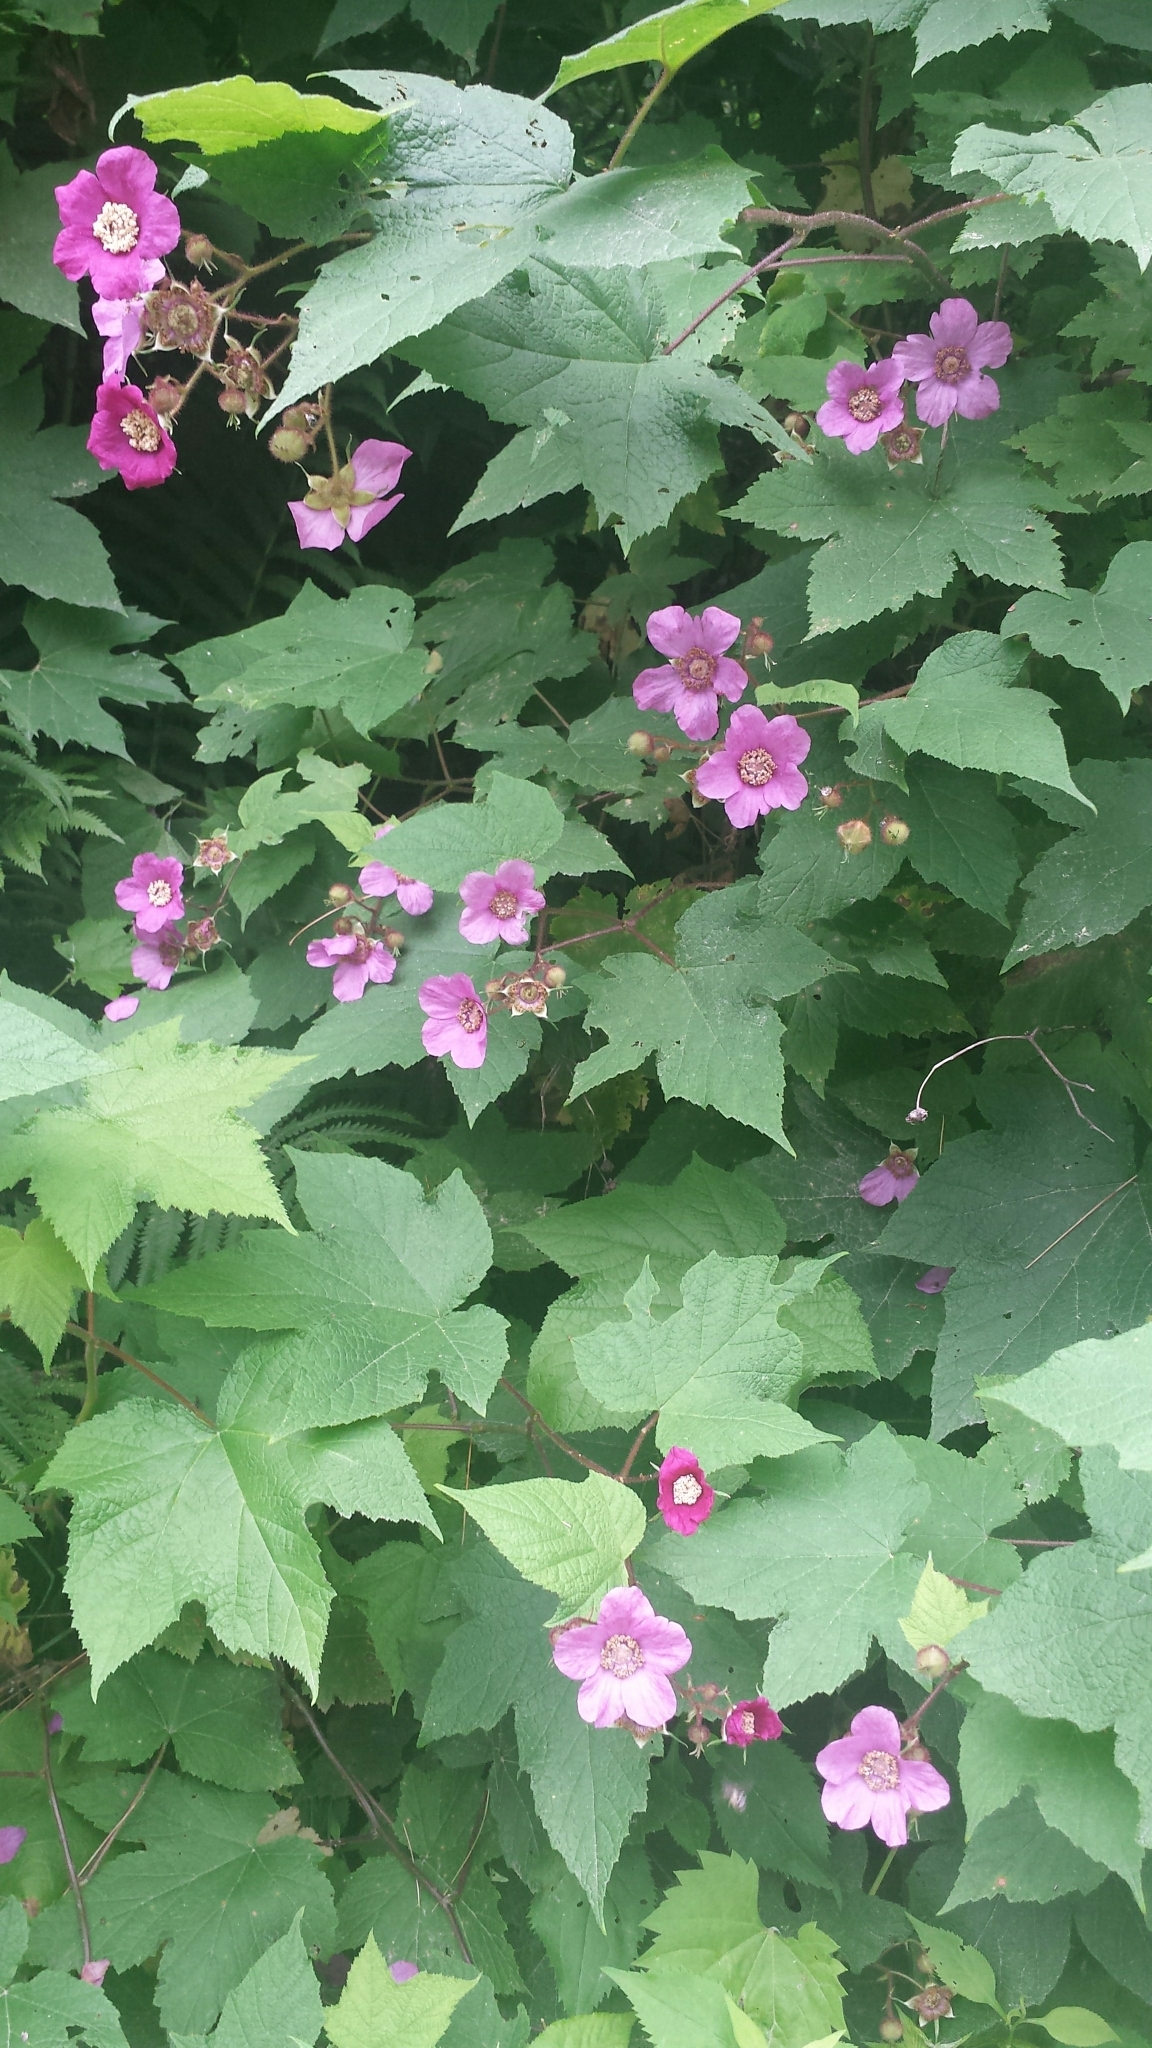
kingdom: Plantae
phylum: Tracheophyta
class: Magnoliopsida
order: Rosales
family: Rosaceae
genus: Rubus
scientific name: Rubus odoratus
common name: Purple-flowered raspberry
